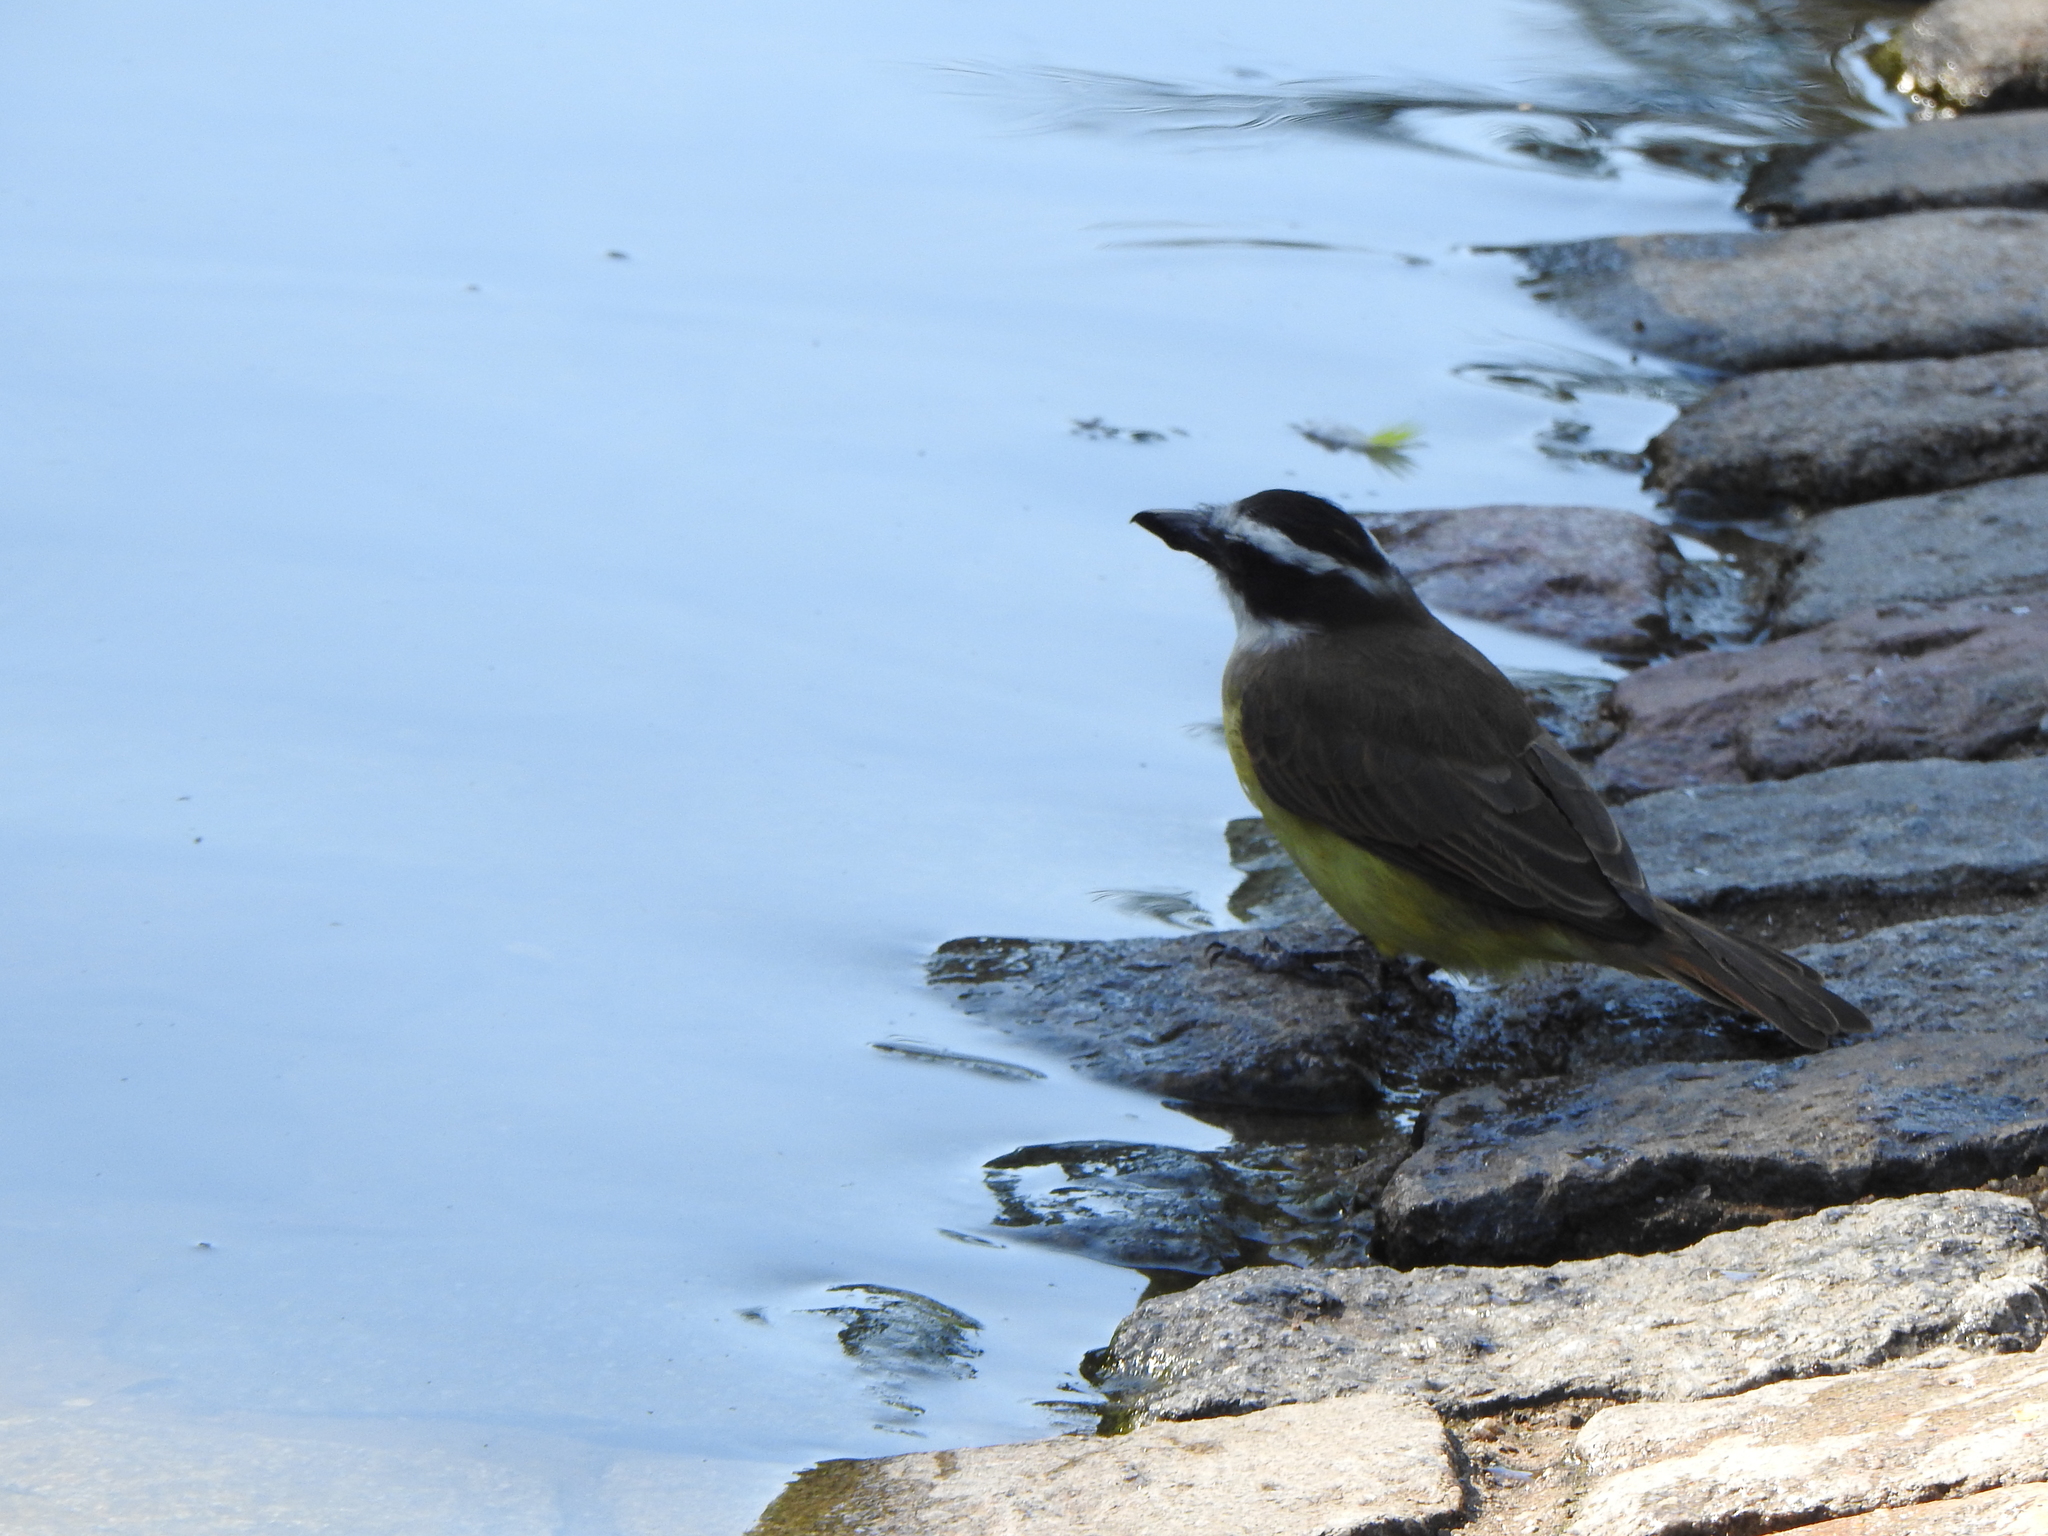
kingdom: Animalia
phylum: Chordata
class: Aves
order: Passeriformes
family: Tyrannidae
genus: Pitangus
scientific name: Pitangus sulphuratus
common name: Great kiskadee
